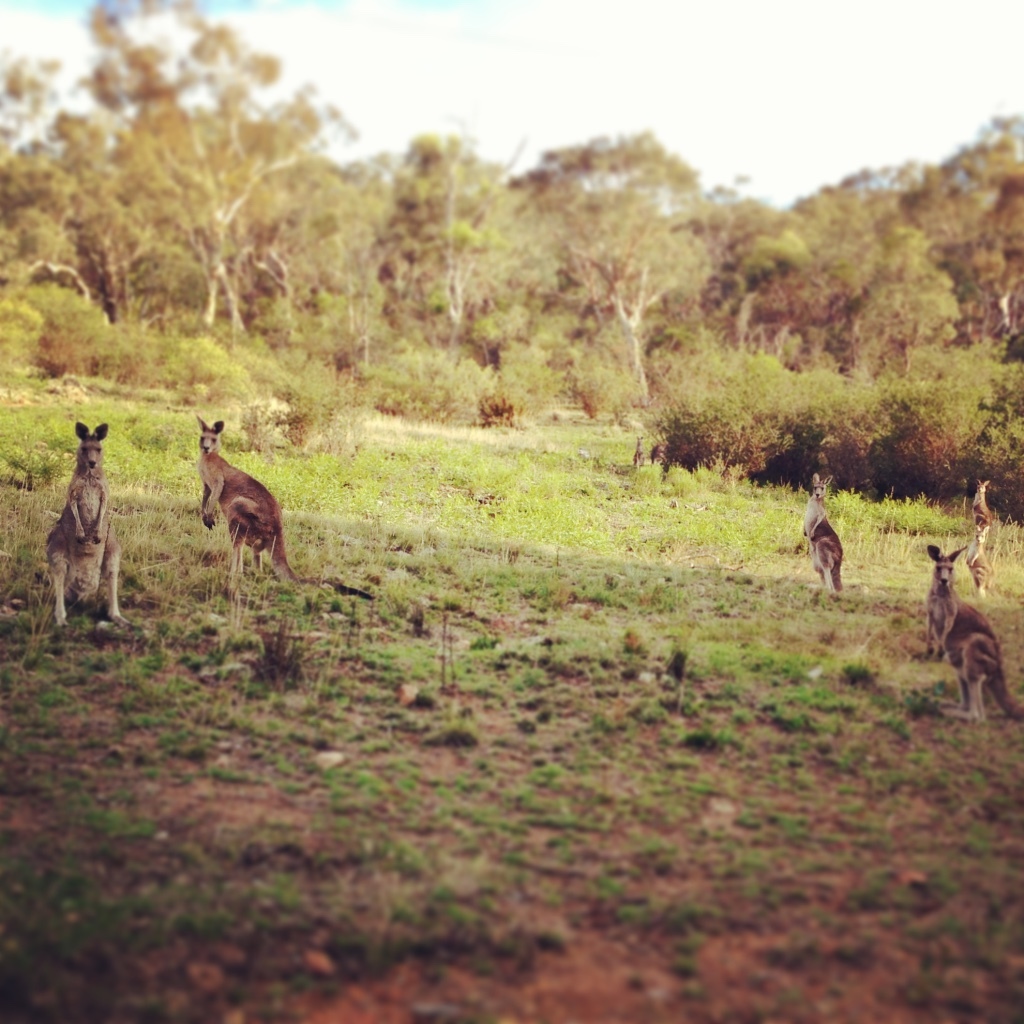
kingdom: Animalia
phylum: Chordata
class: Mammalia
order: Diprotodontia
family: Macropodidae
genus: Macropus
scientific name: Macropus giganteus
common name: Eastern grey kangaroo
